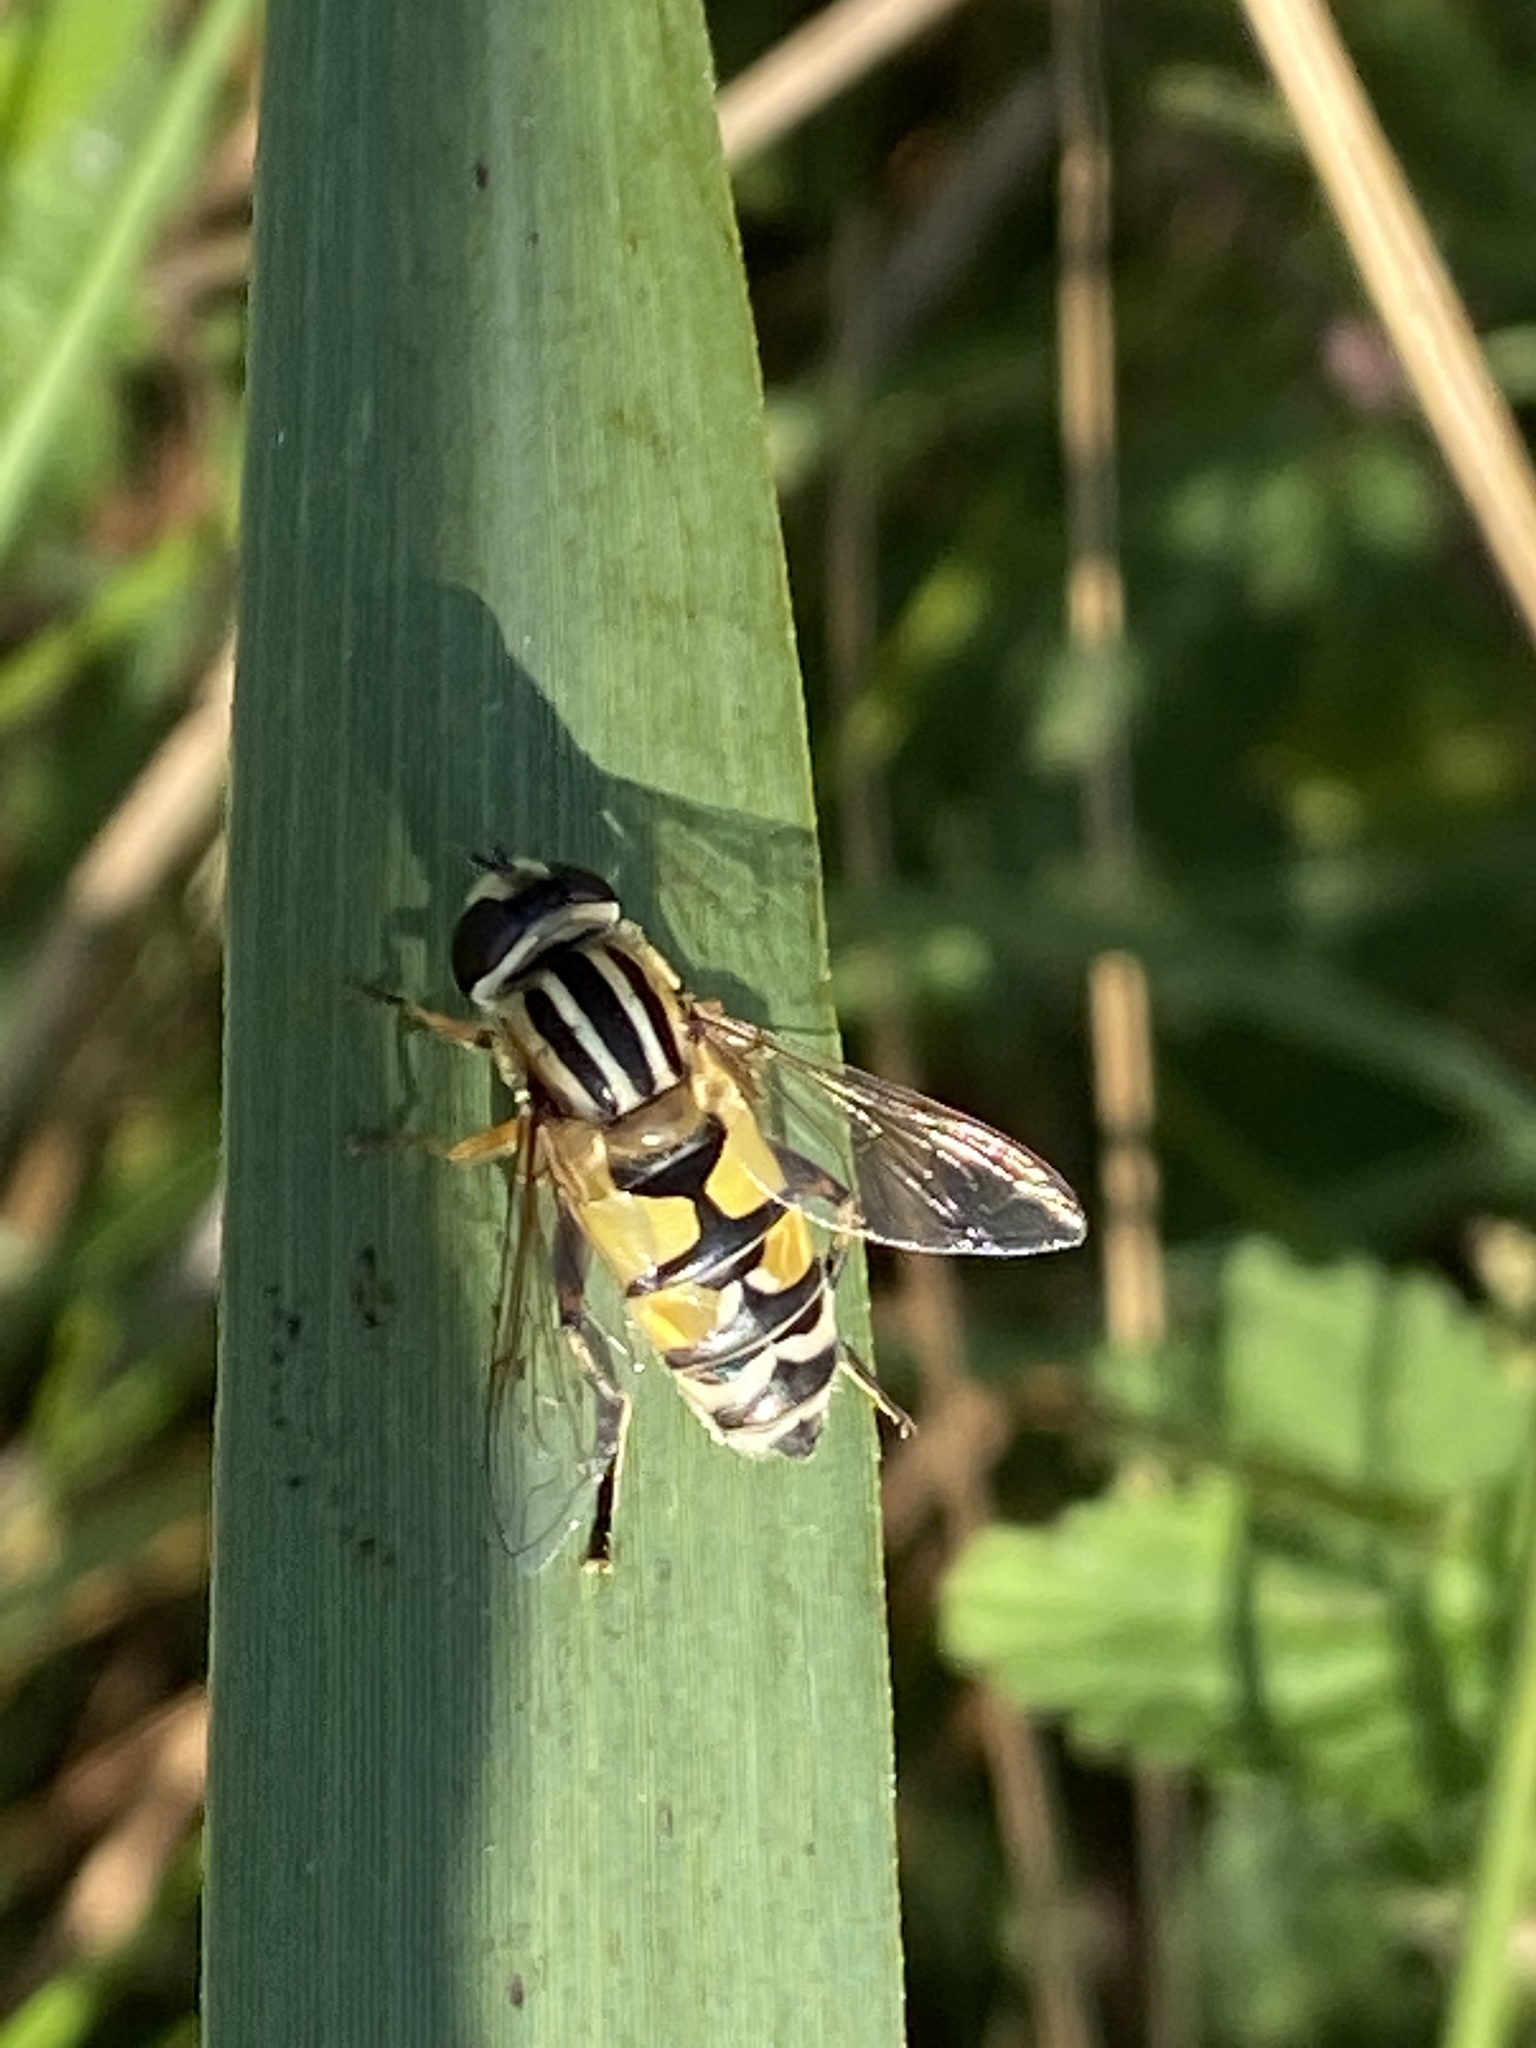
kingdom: Animalia
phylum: Arthropoda
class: Insecta
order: Diptera
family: Syrphidae
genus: Helophilus
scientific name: Helophilus trivittatus
